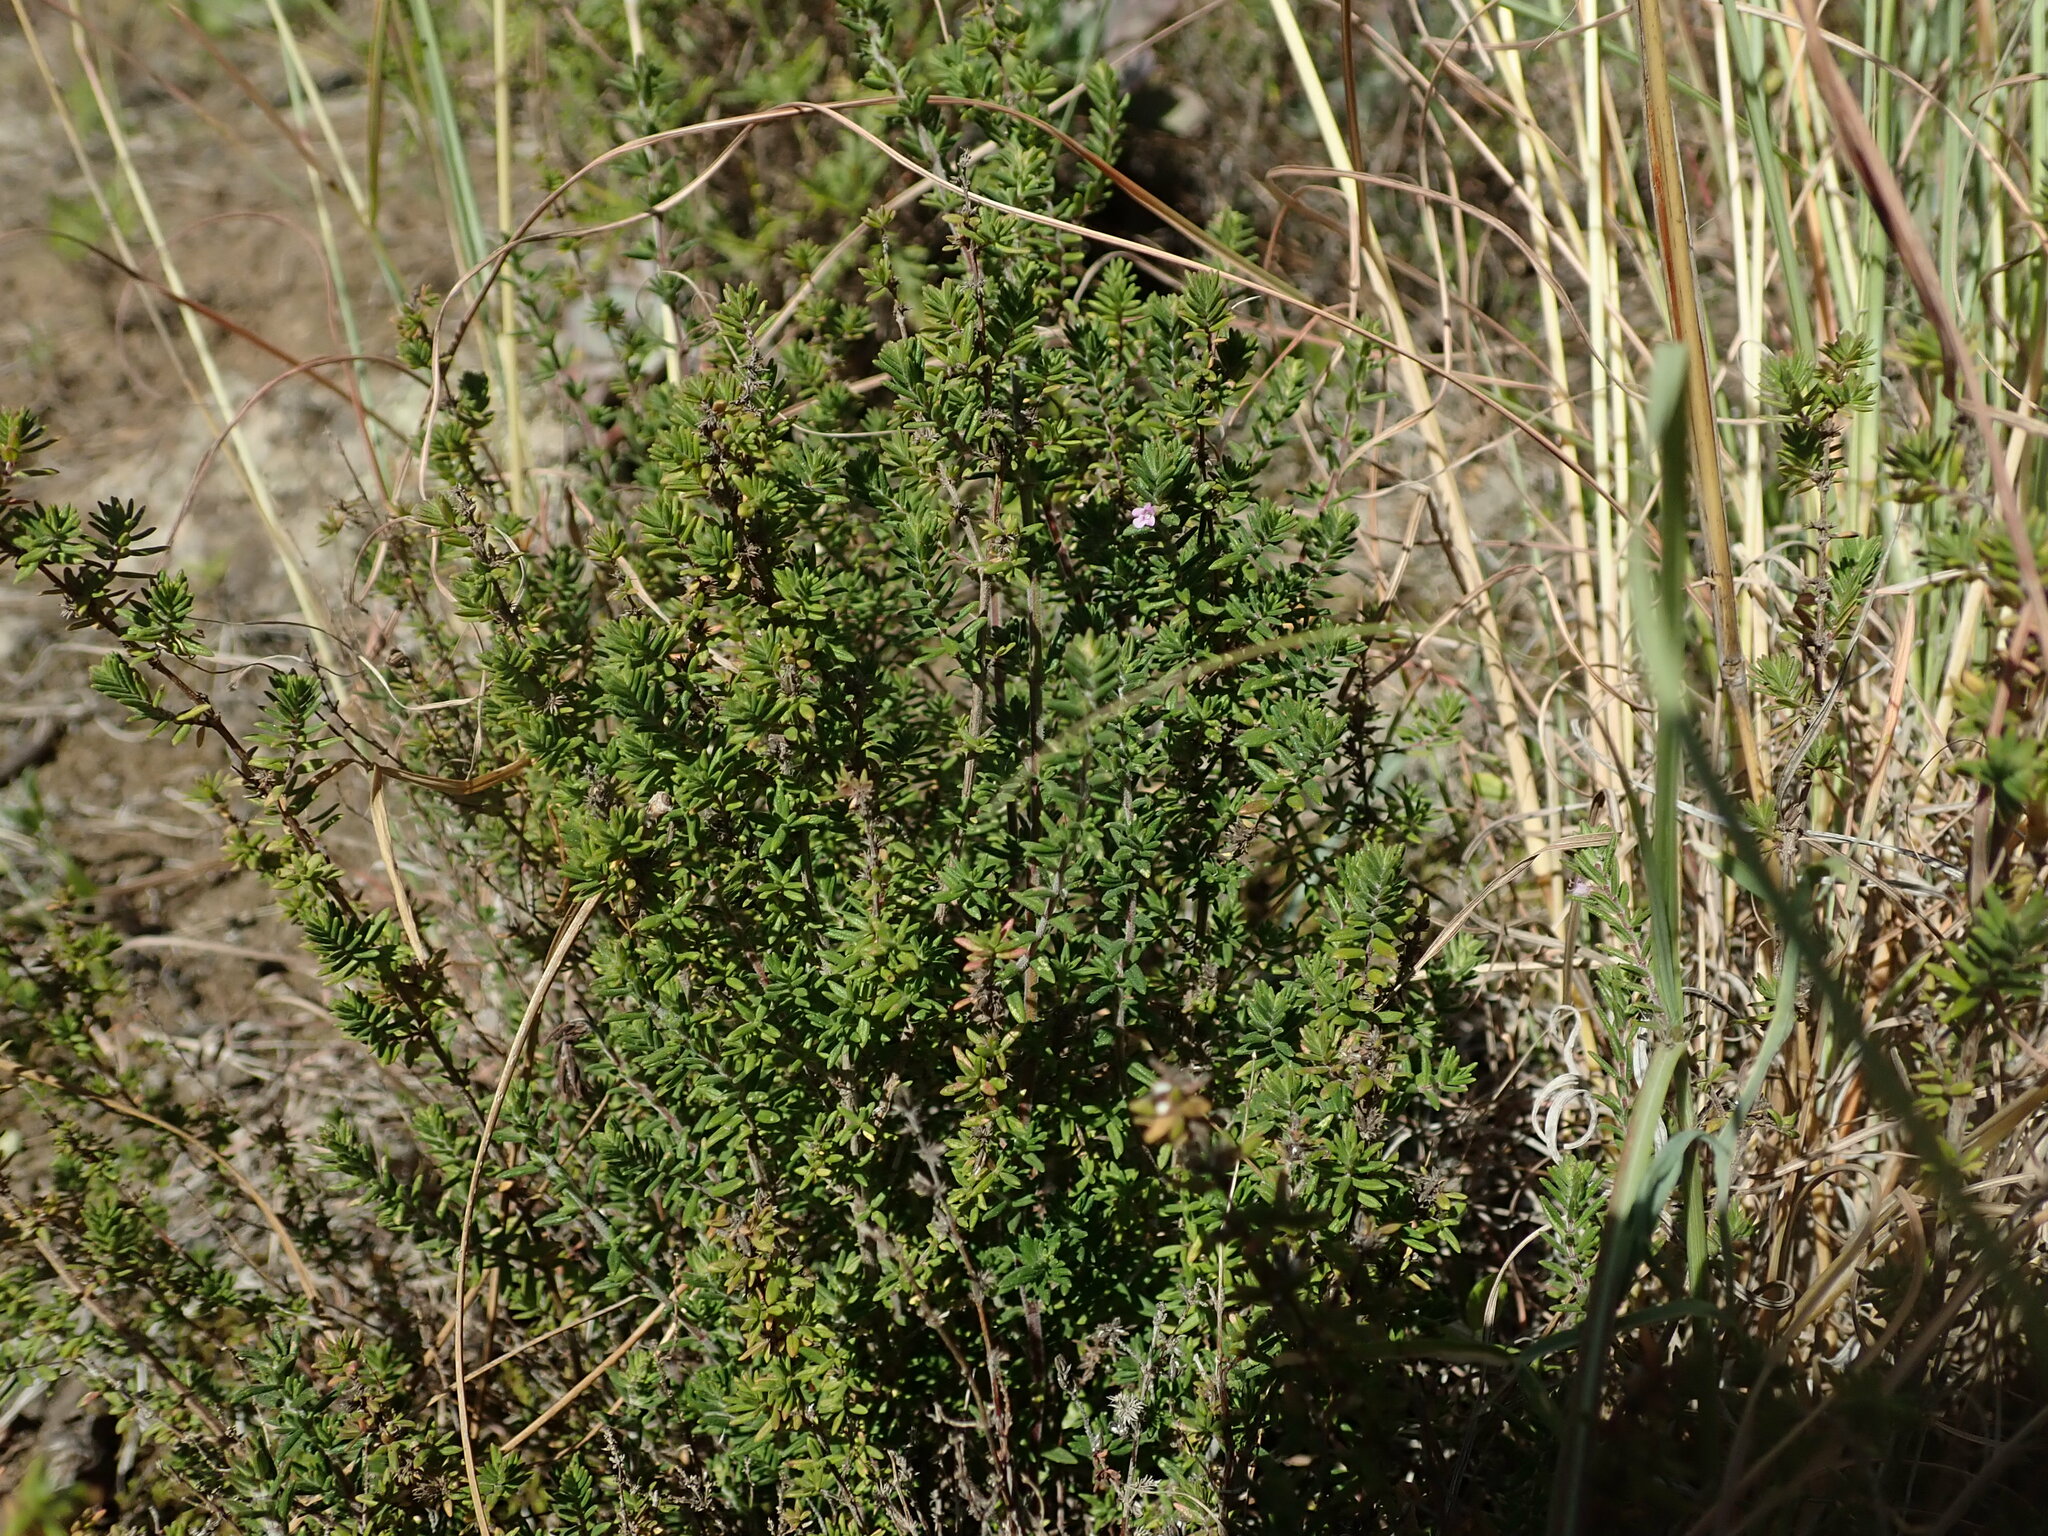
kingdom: Plantae
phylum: Tracheophyta
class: Magnoliopsida
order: Lamiales
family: Lamiaceae
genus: Micromeria
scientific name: Micromeria canariensis
